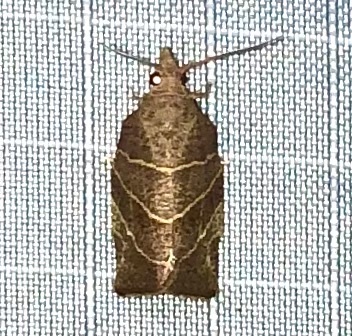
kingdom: Animalia
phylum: Arthropoda
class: Insecta
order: Lepidoptera
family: Tortricidae
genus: Pandemis
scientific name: Pandemis limitata
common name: Three-lined leafroller moth
